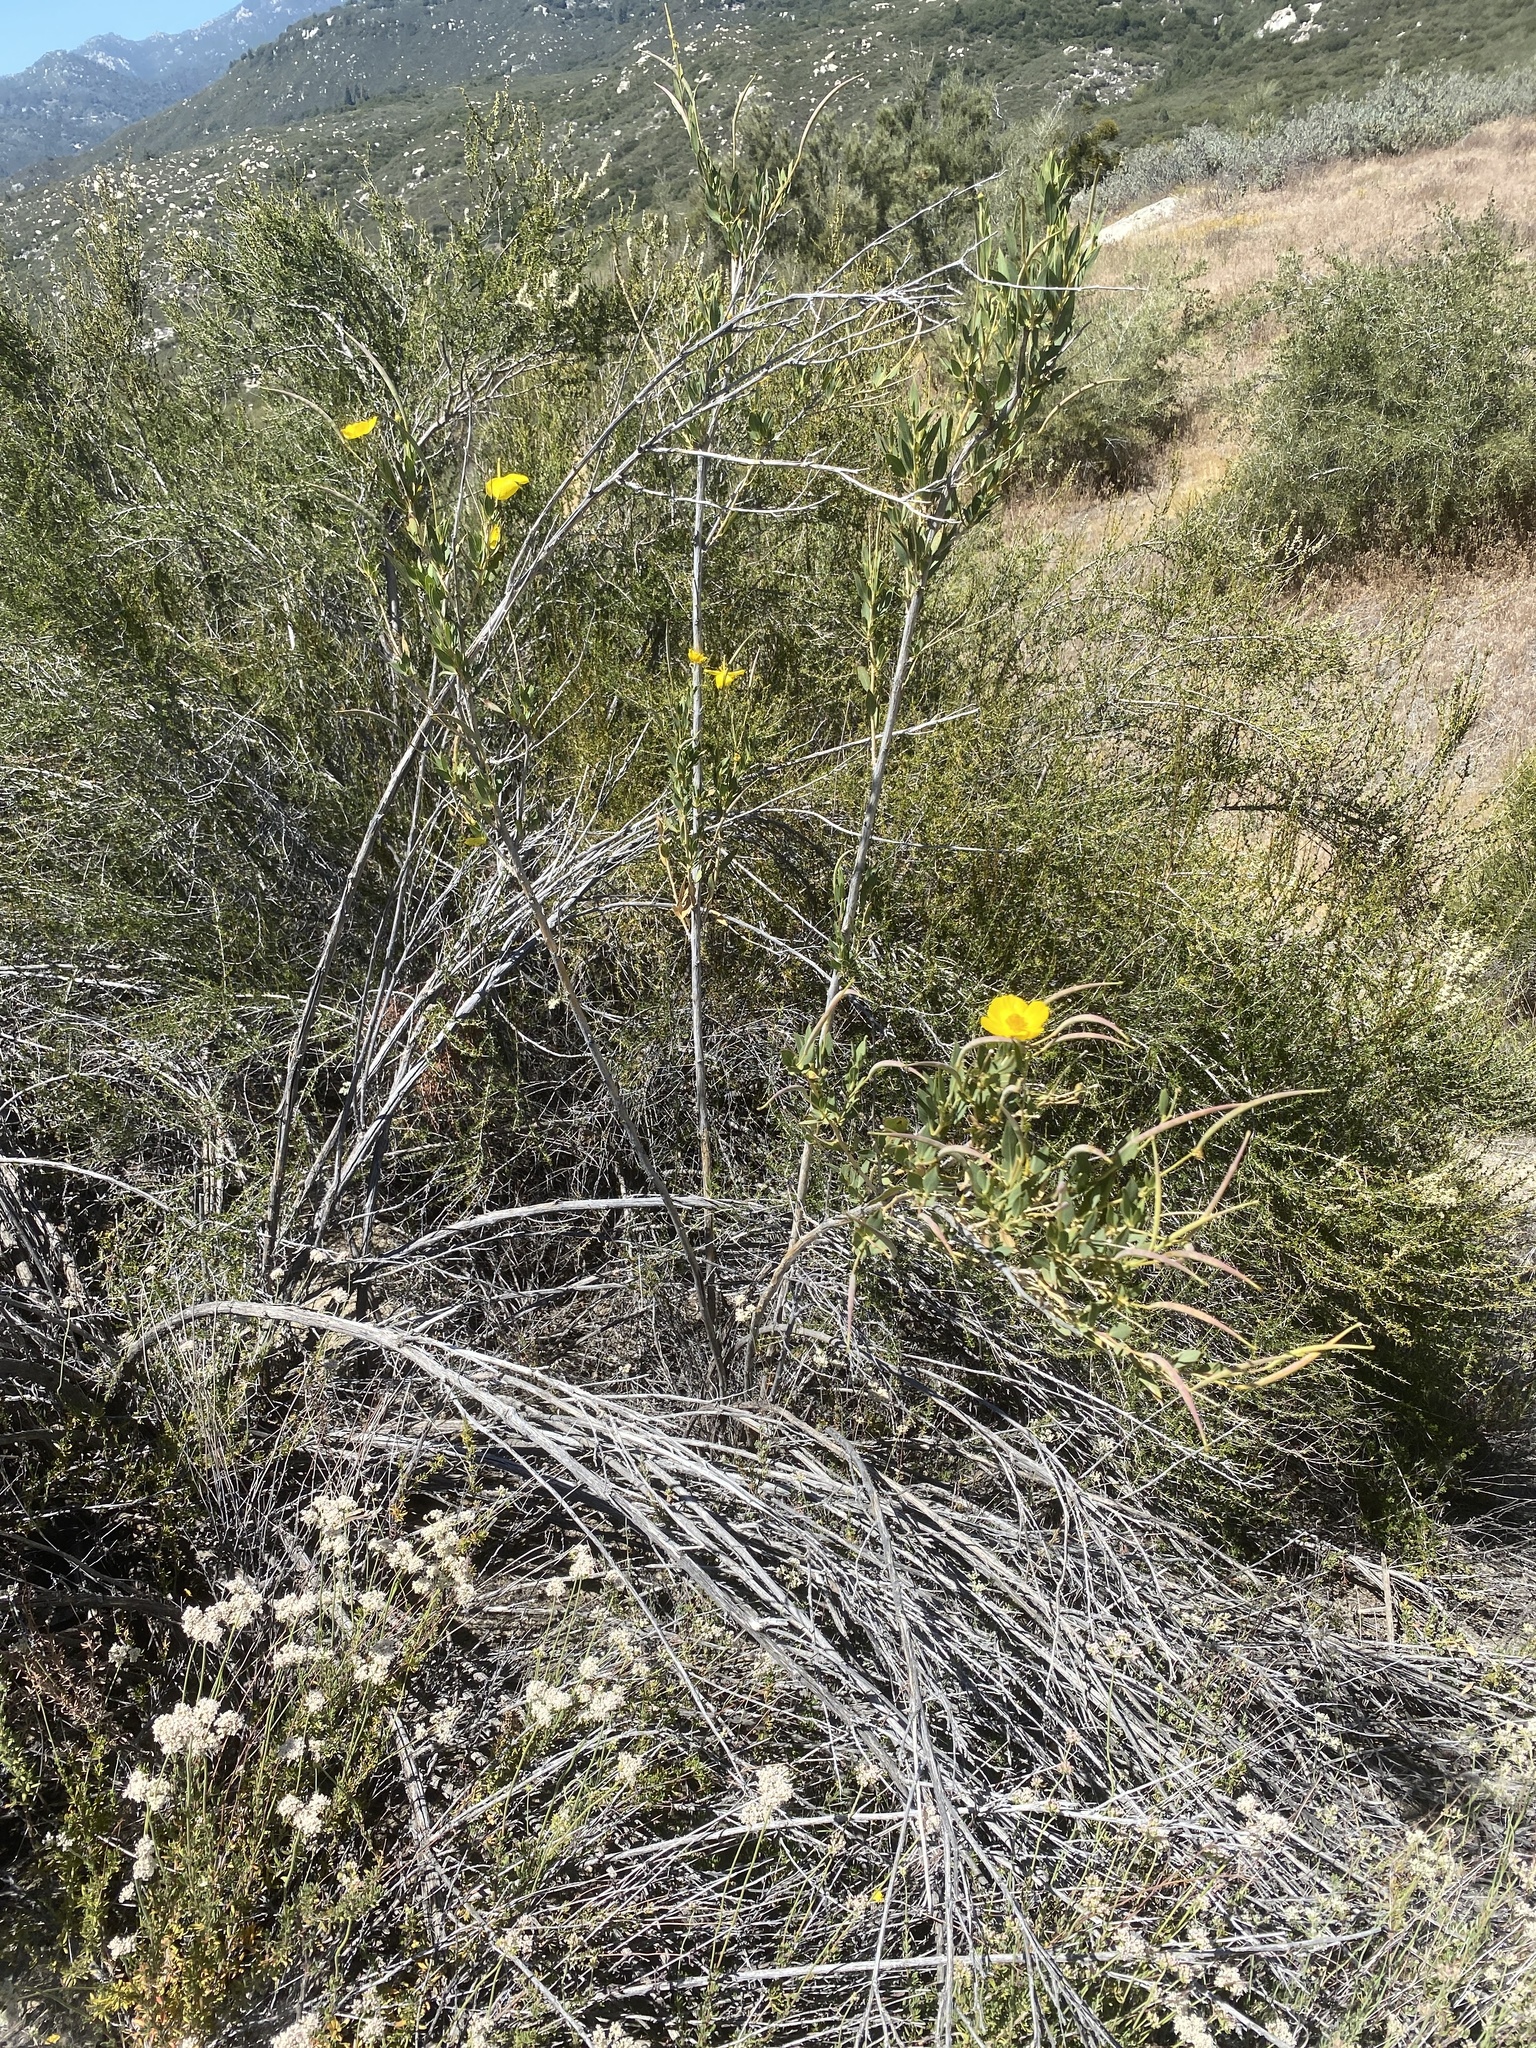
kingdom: Plantae
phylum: Tracheophyta
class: Magnoliopsida
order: Ranunculales
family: Papaveraceae
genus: Dendromecon
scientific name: Dendromecon rigida
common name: Tree poppy
